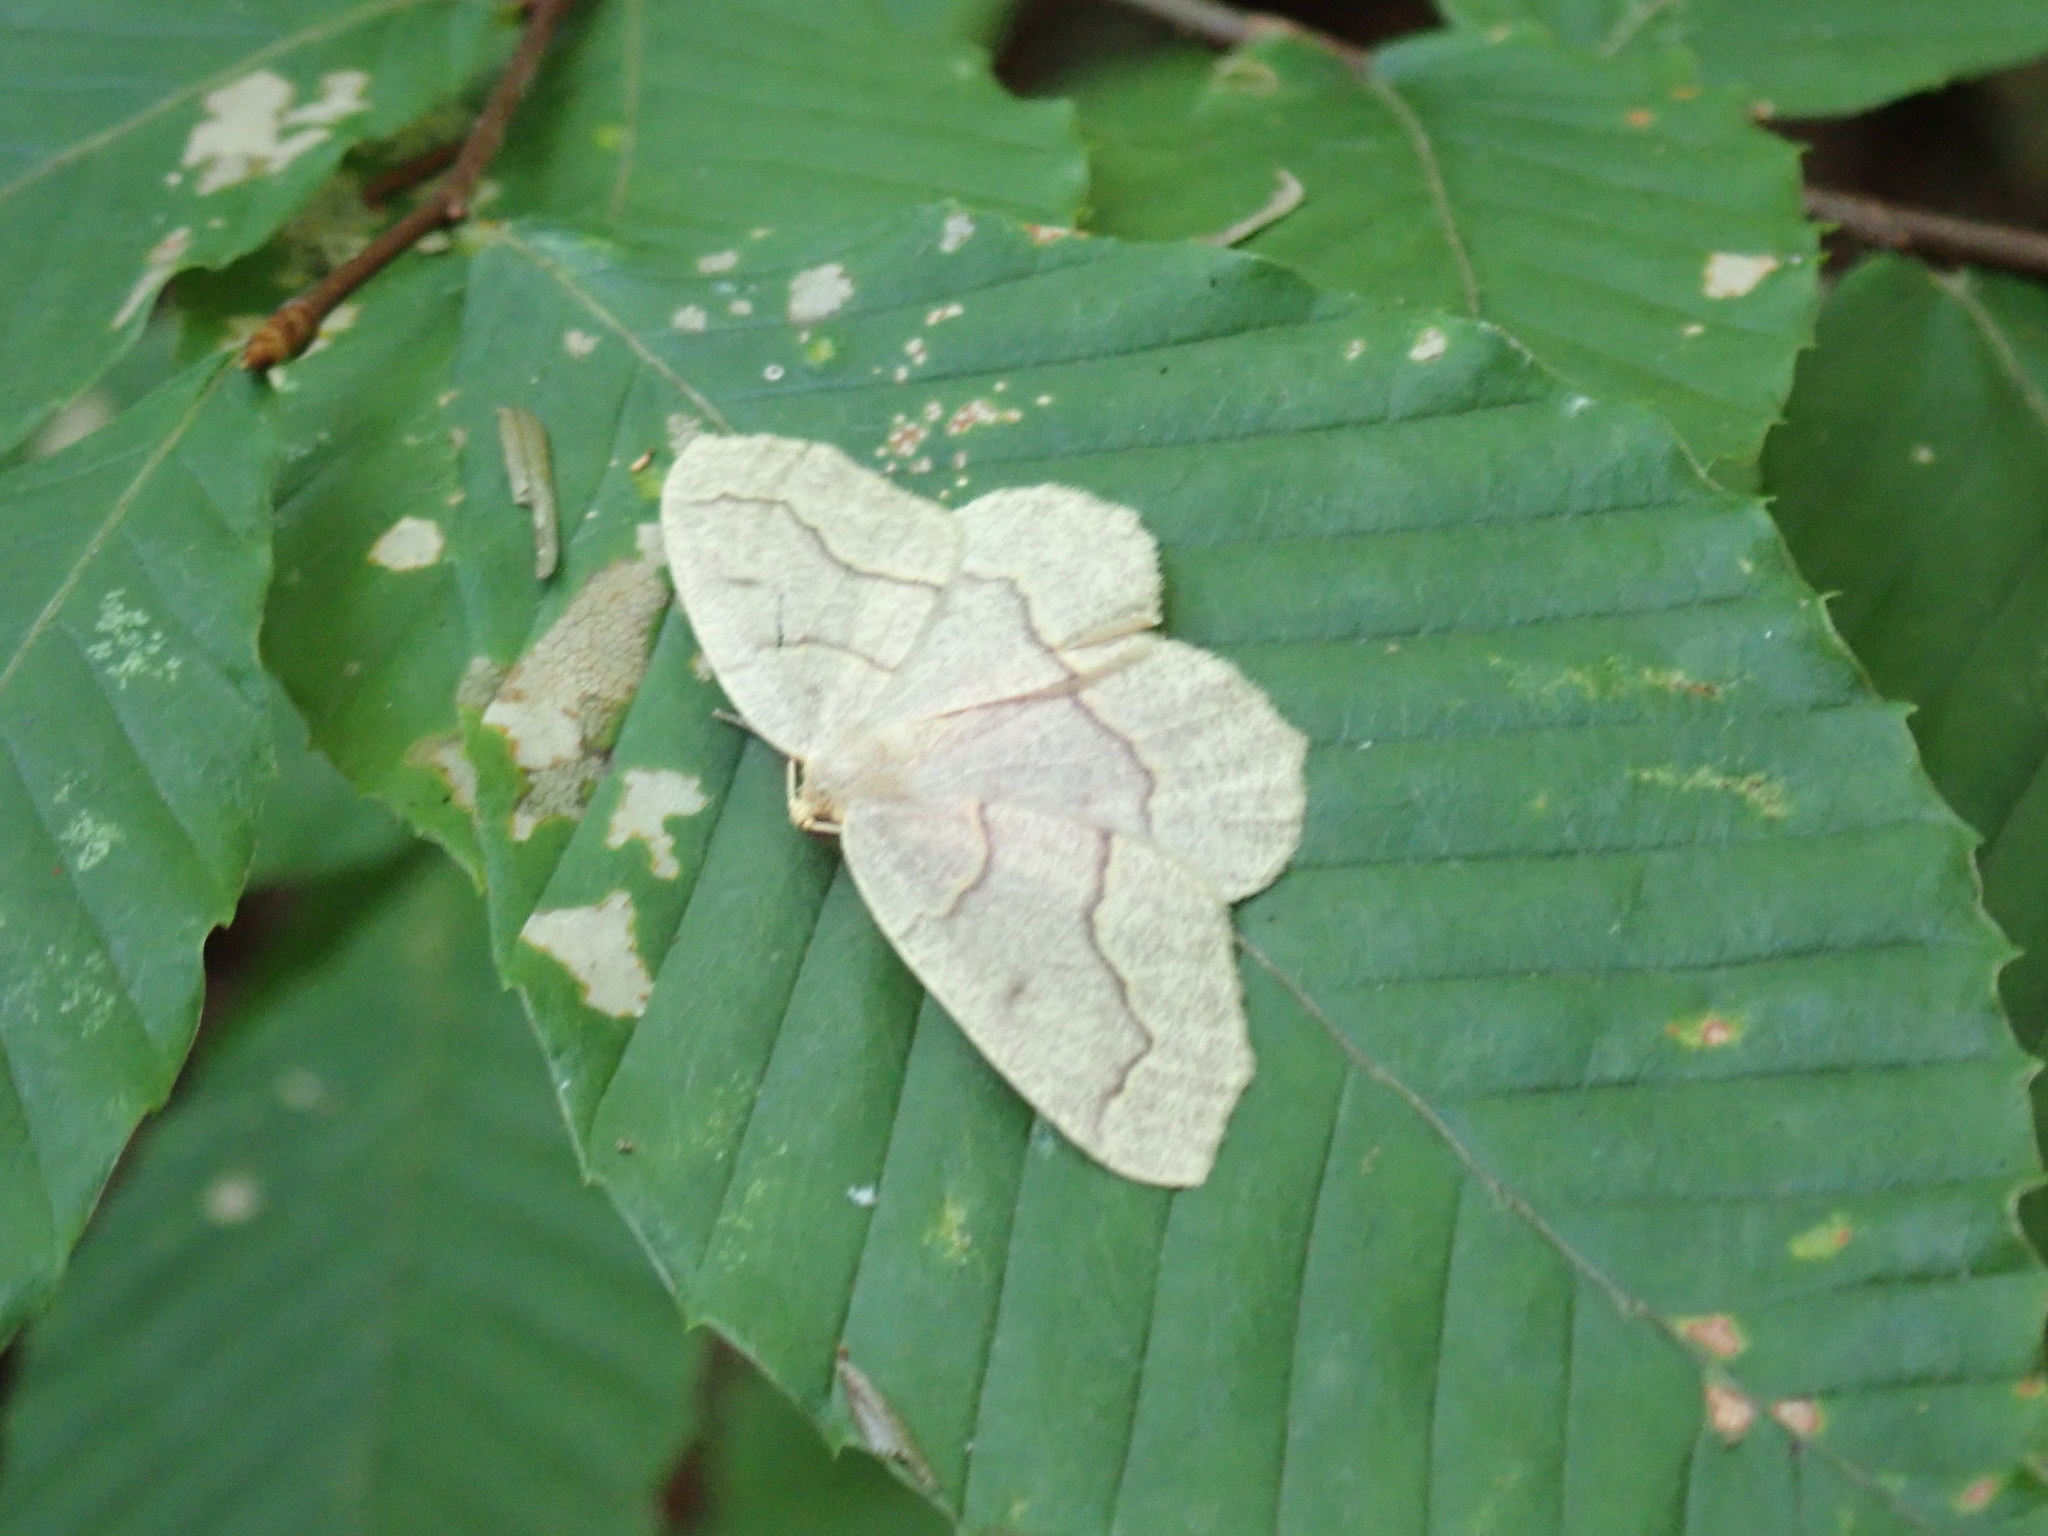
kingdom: Animalia
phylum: Arthropoda
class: Insecta
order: Lepidoptera
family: Geometridae
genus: Lambdina
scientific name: Lambdina fiscellaria
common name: Hemlock looper
